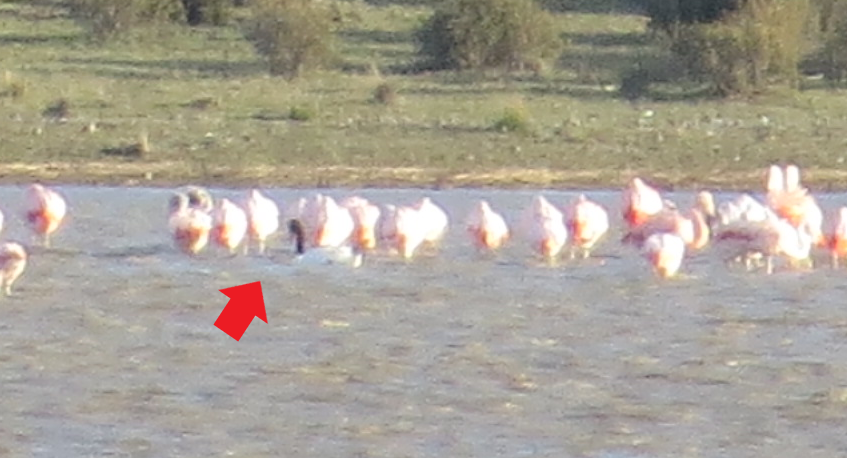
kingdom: Animalia
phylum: Chordata
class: Aves
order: Anseriformes
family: Anatidae
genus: Cygnus
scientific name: Cygnus melancoryphus
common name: Black-necked swan
